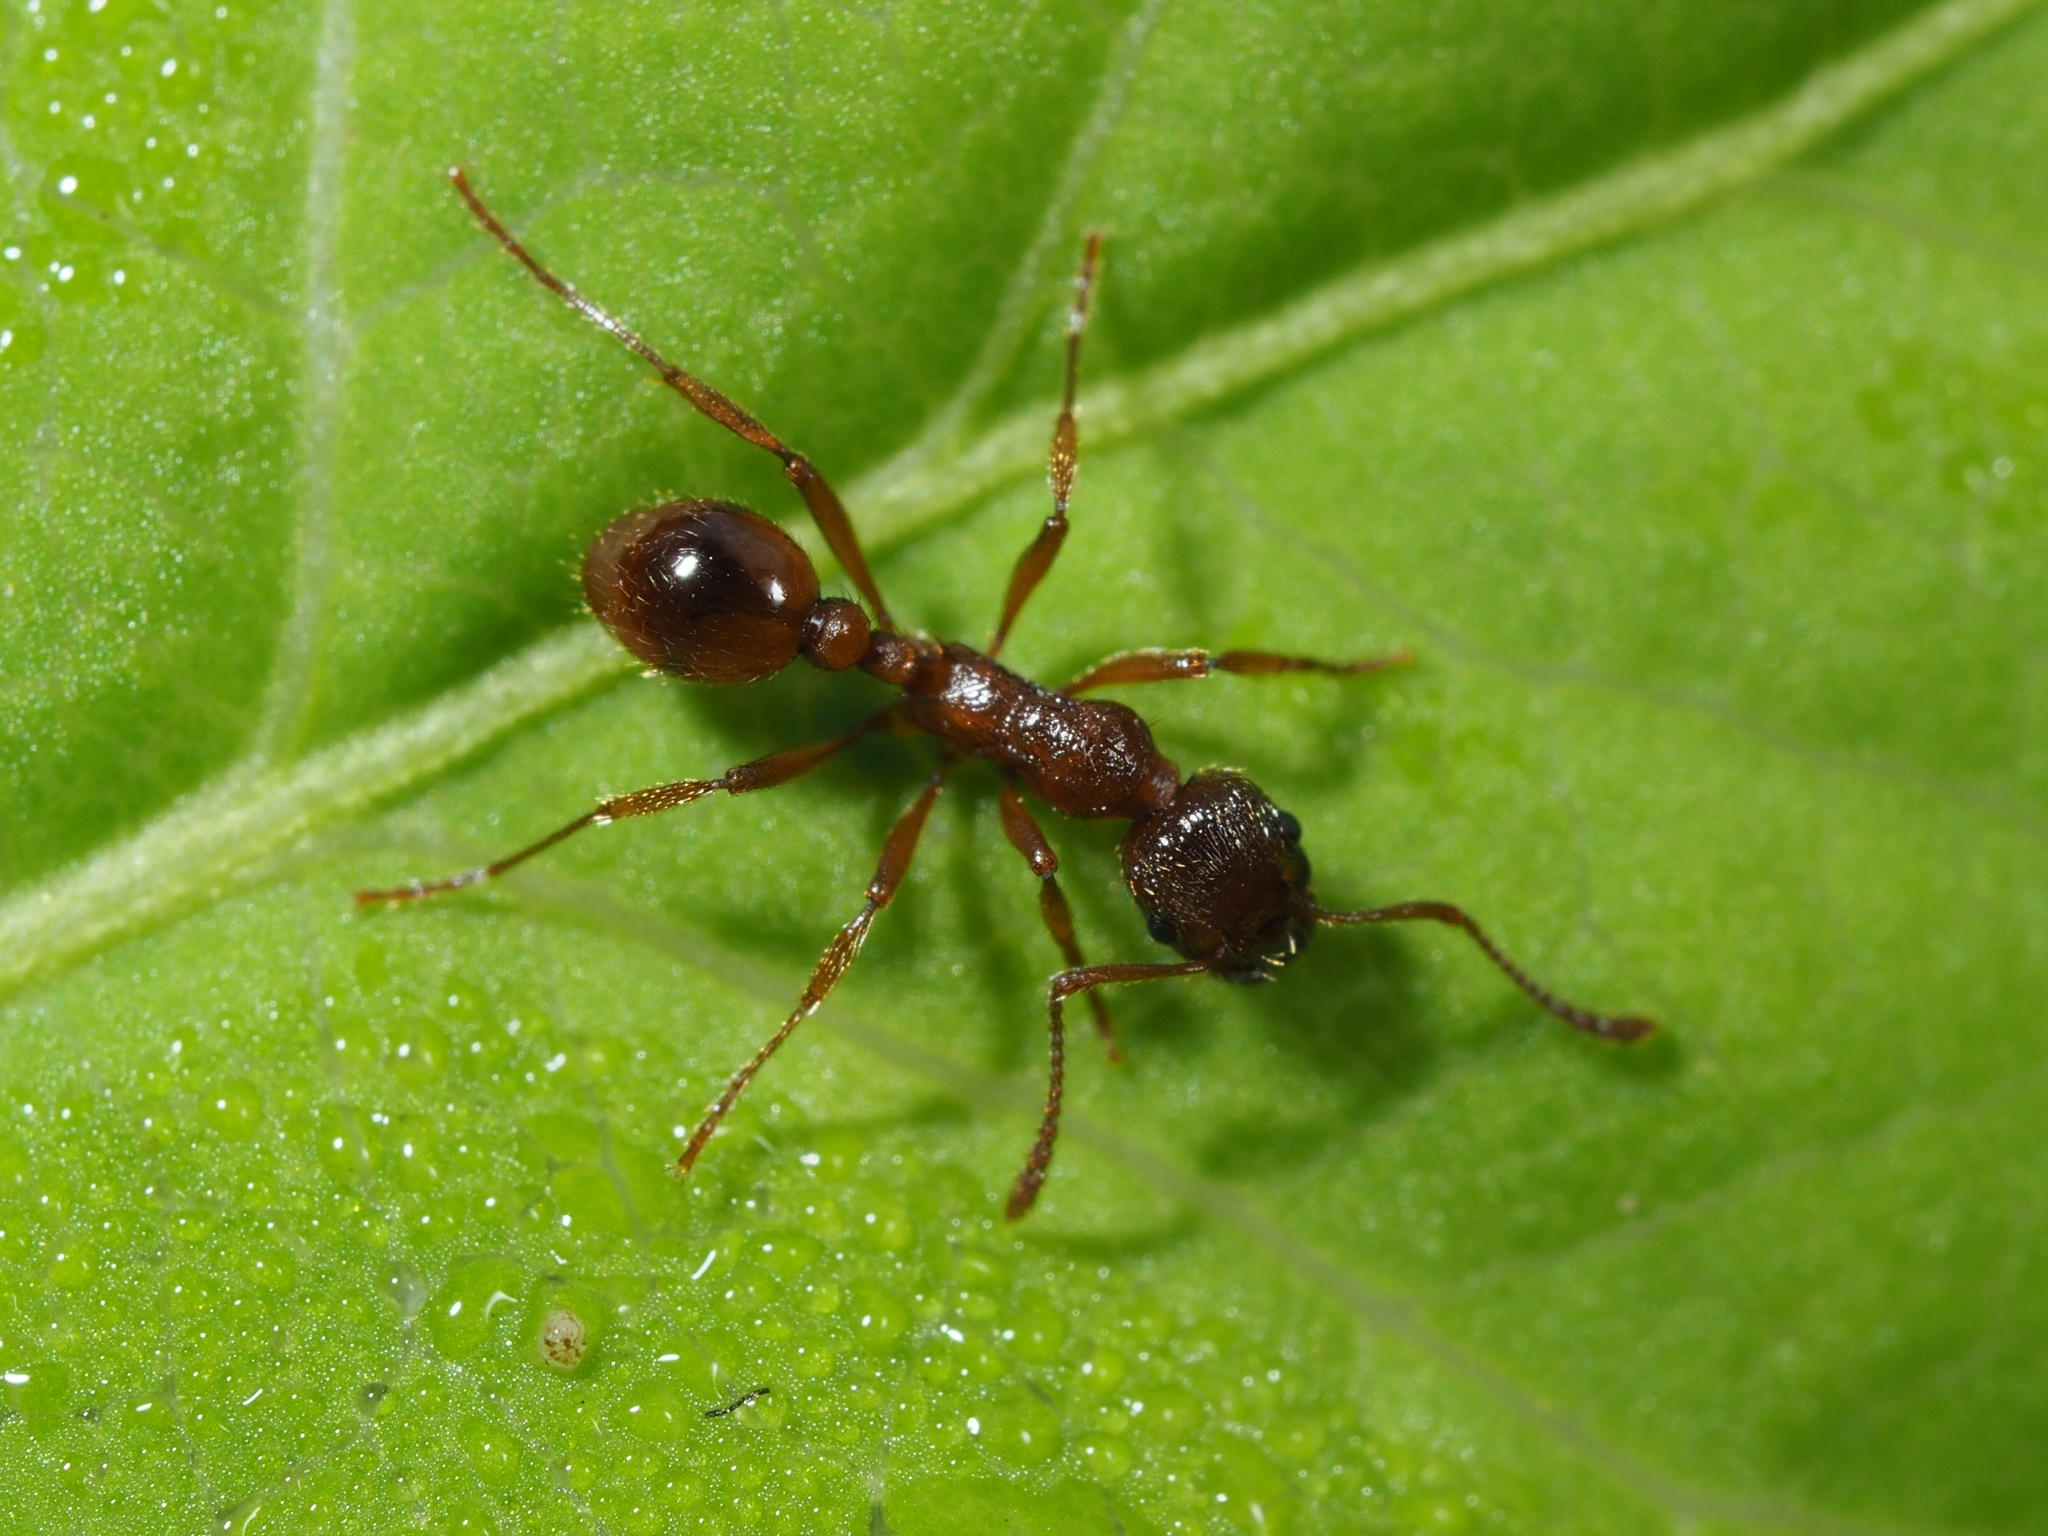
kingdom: Animalia
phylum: Arthropoda
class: Insecta
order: Hymenoptera
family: Formicidae
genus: Myrmica
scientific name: Myrmica rubra
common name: European fire ant
